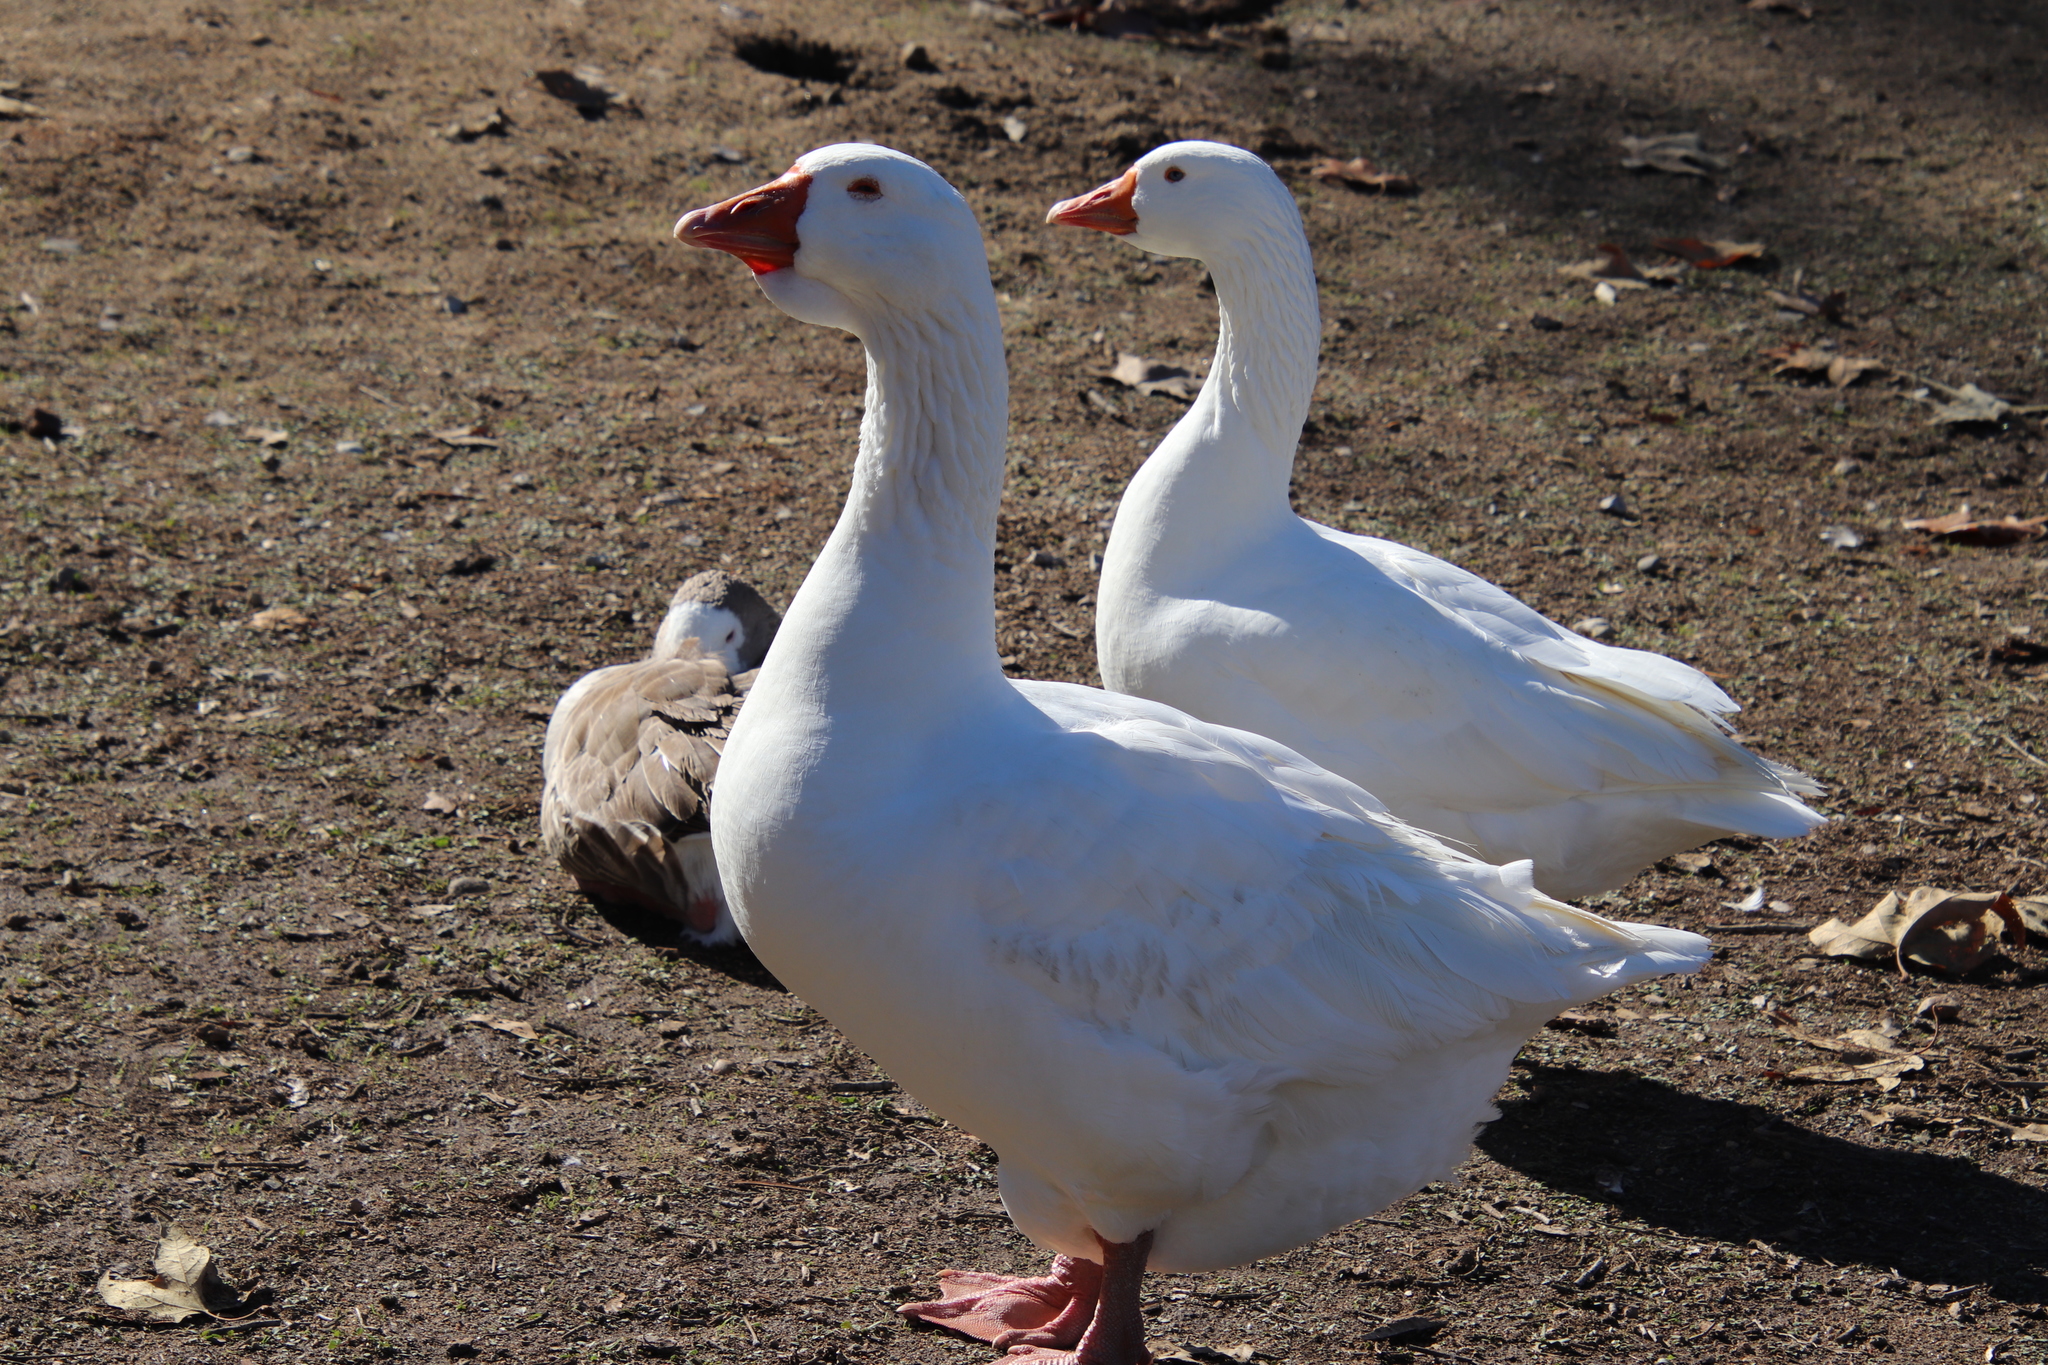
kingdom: Animalia
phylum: Chordata
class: Aves
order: Anseriformes
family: Anatidae
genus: Anser
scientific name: Anser anser
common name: Greylag goose
